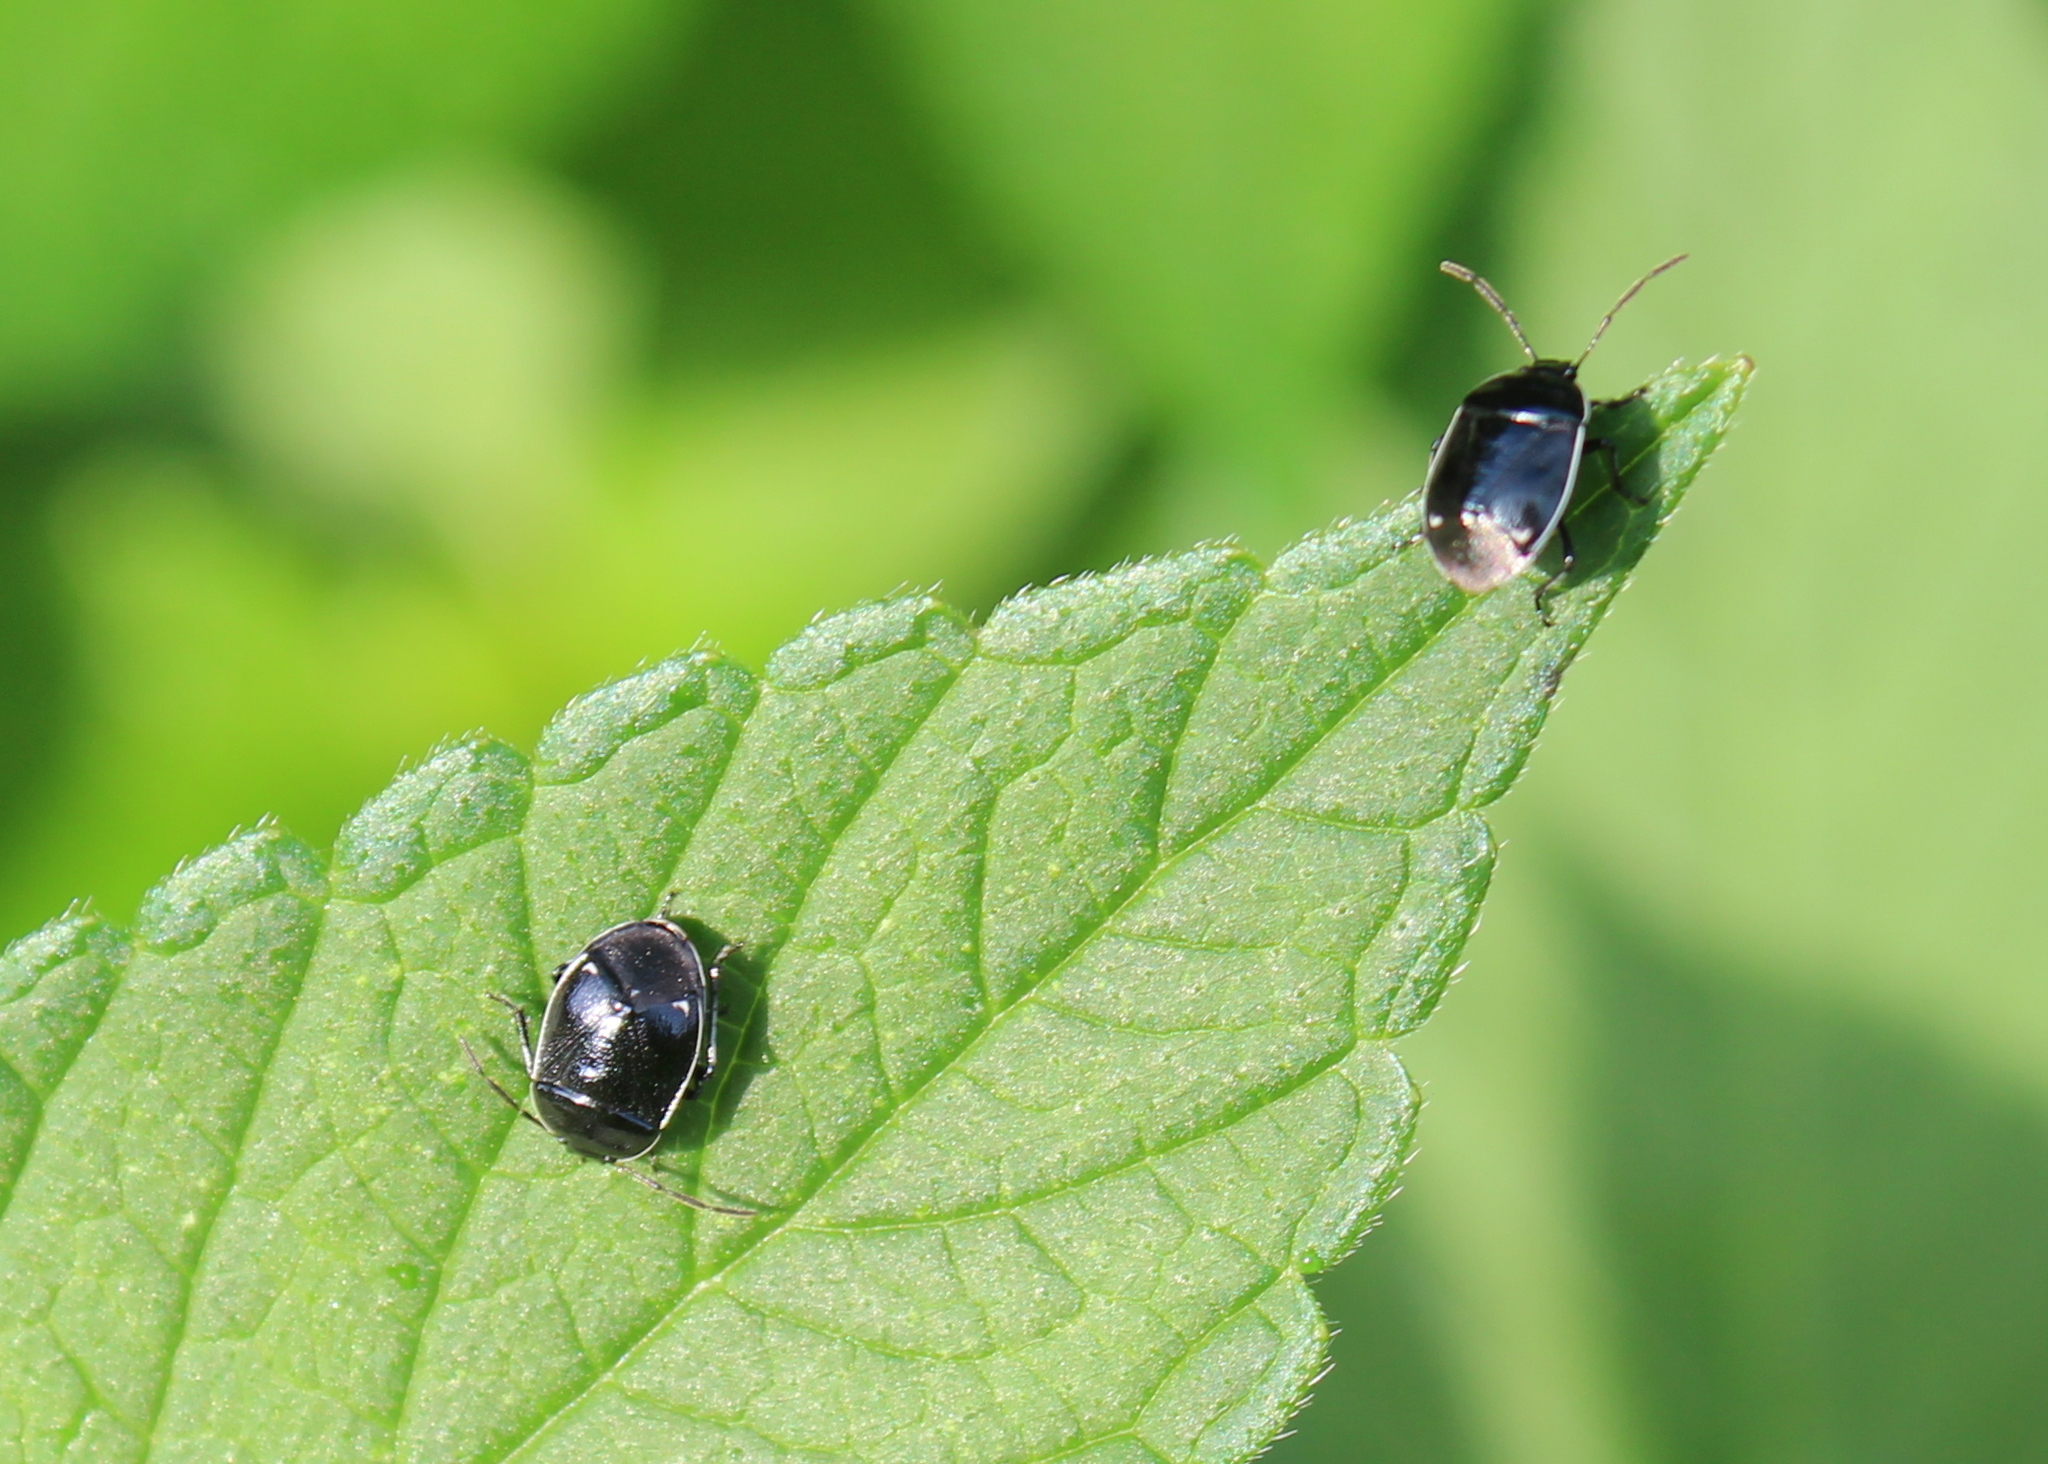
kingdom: Animalia
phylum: Arthropoda
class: Insecta
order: Hemiptera
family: Cydnidae
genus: Sehirus
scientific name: Sehirus cinctus
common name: White-margined burrower bug
